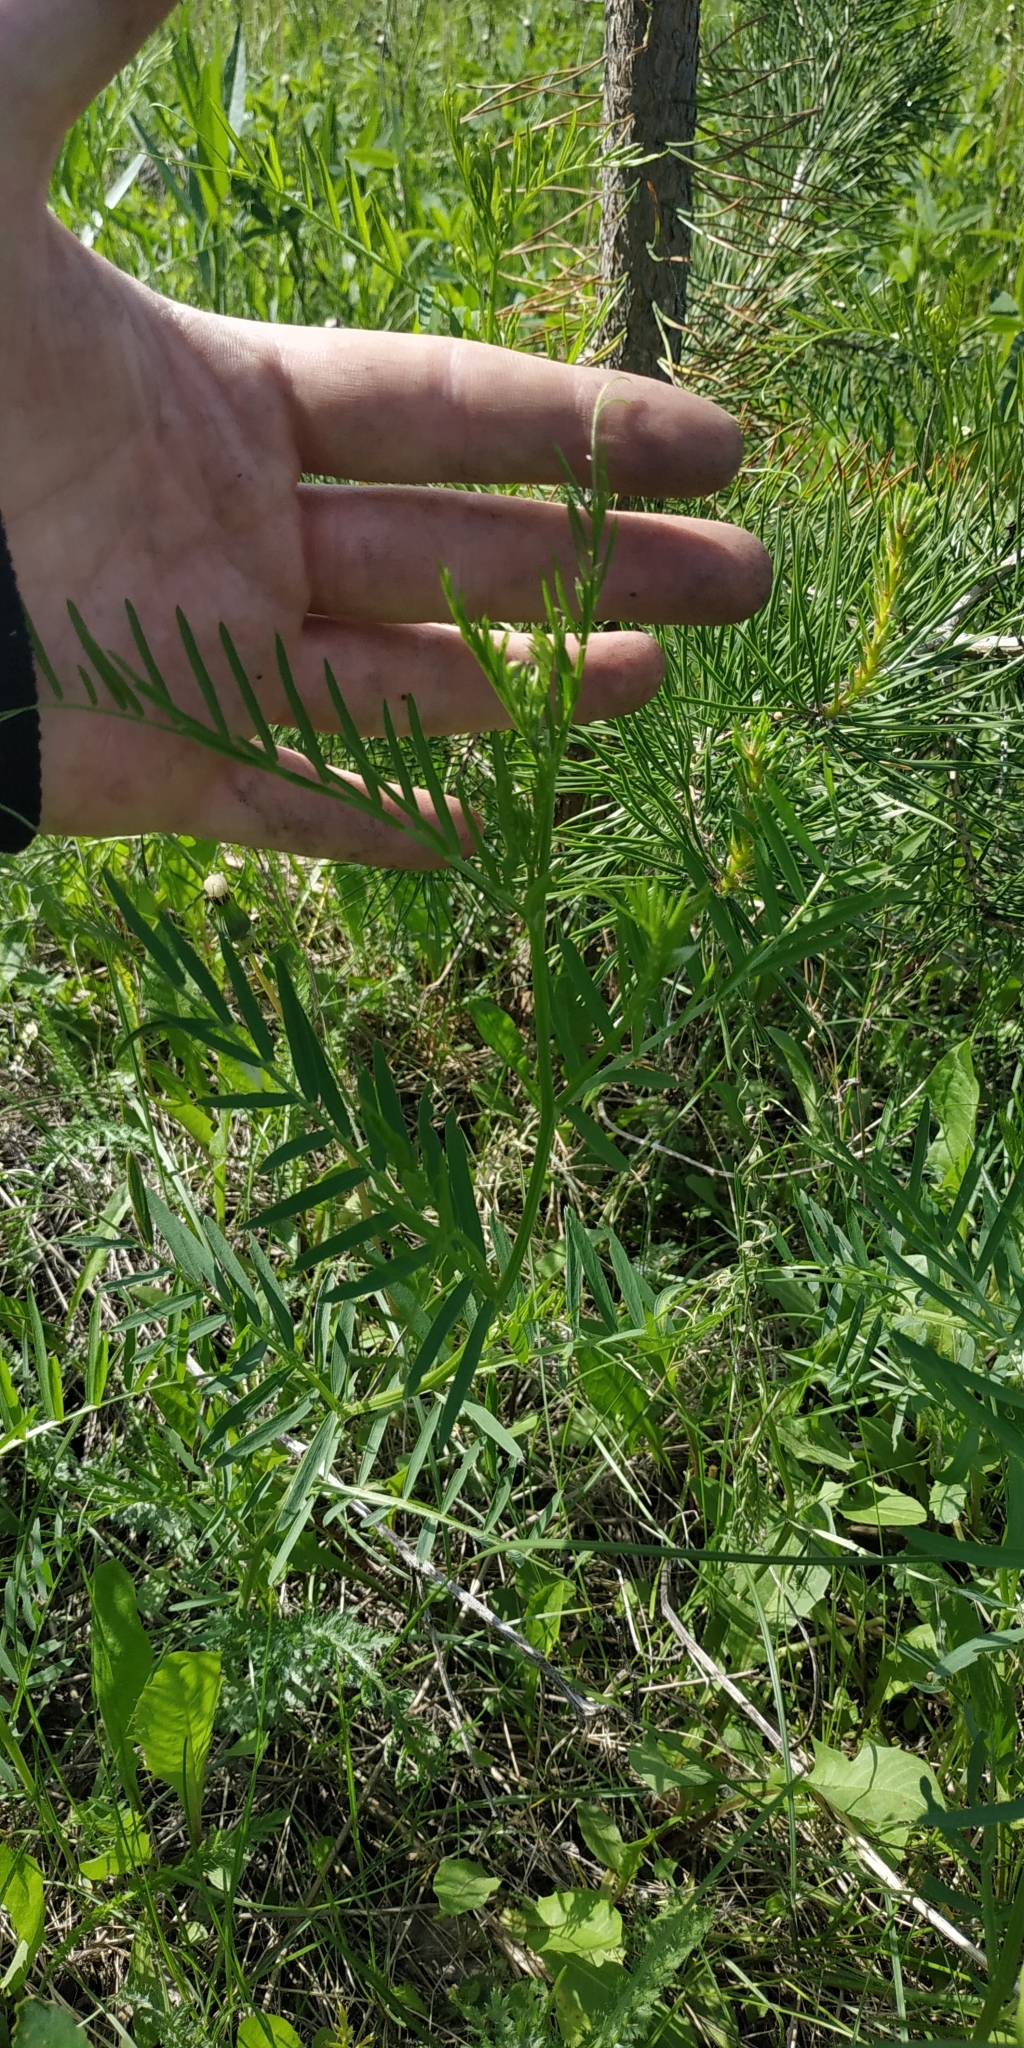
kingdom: Plantae
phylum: Tracheophyta
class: Magnoliopsida
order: Fabales
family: Fabaceae
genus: Vicia
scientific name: Vicia tenuifolia
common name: Fine-leaved vetch
